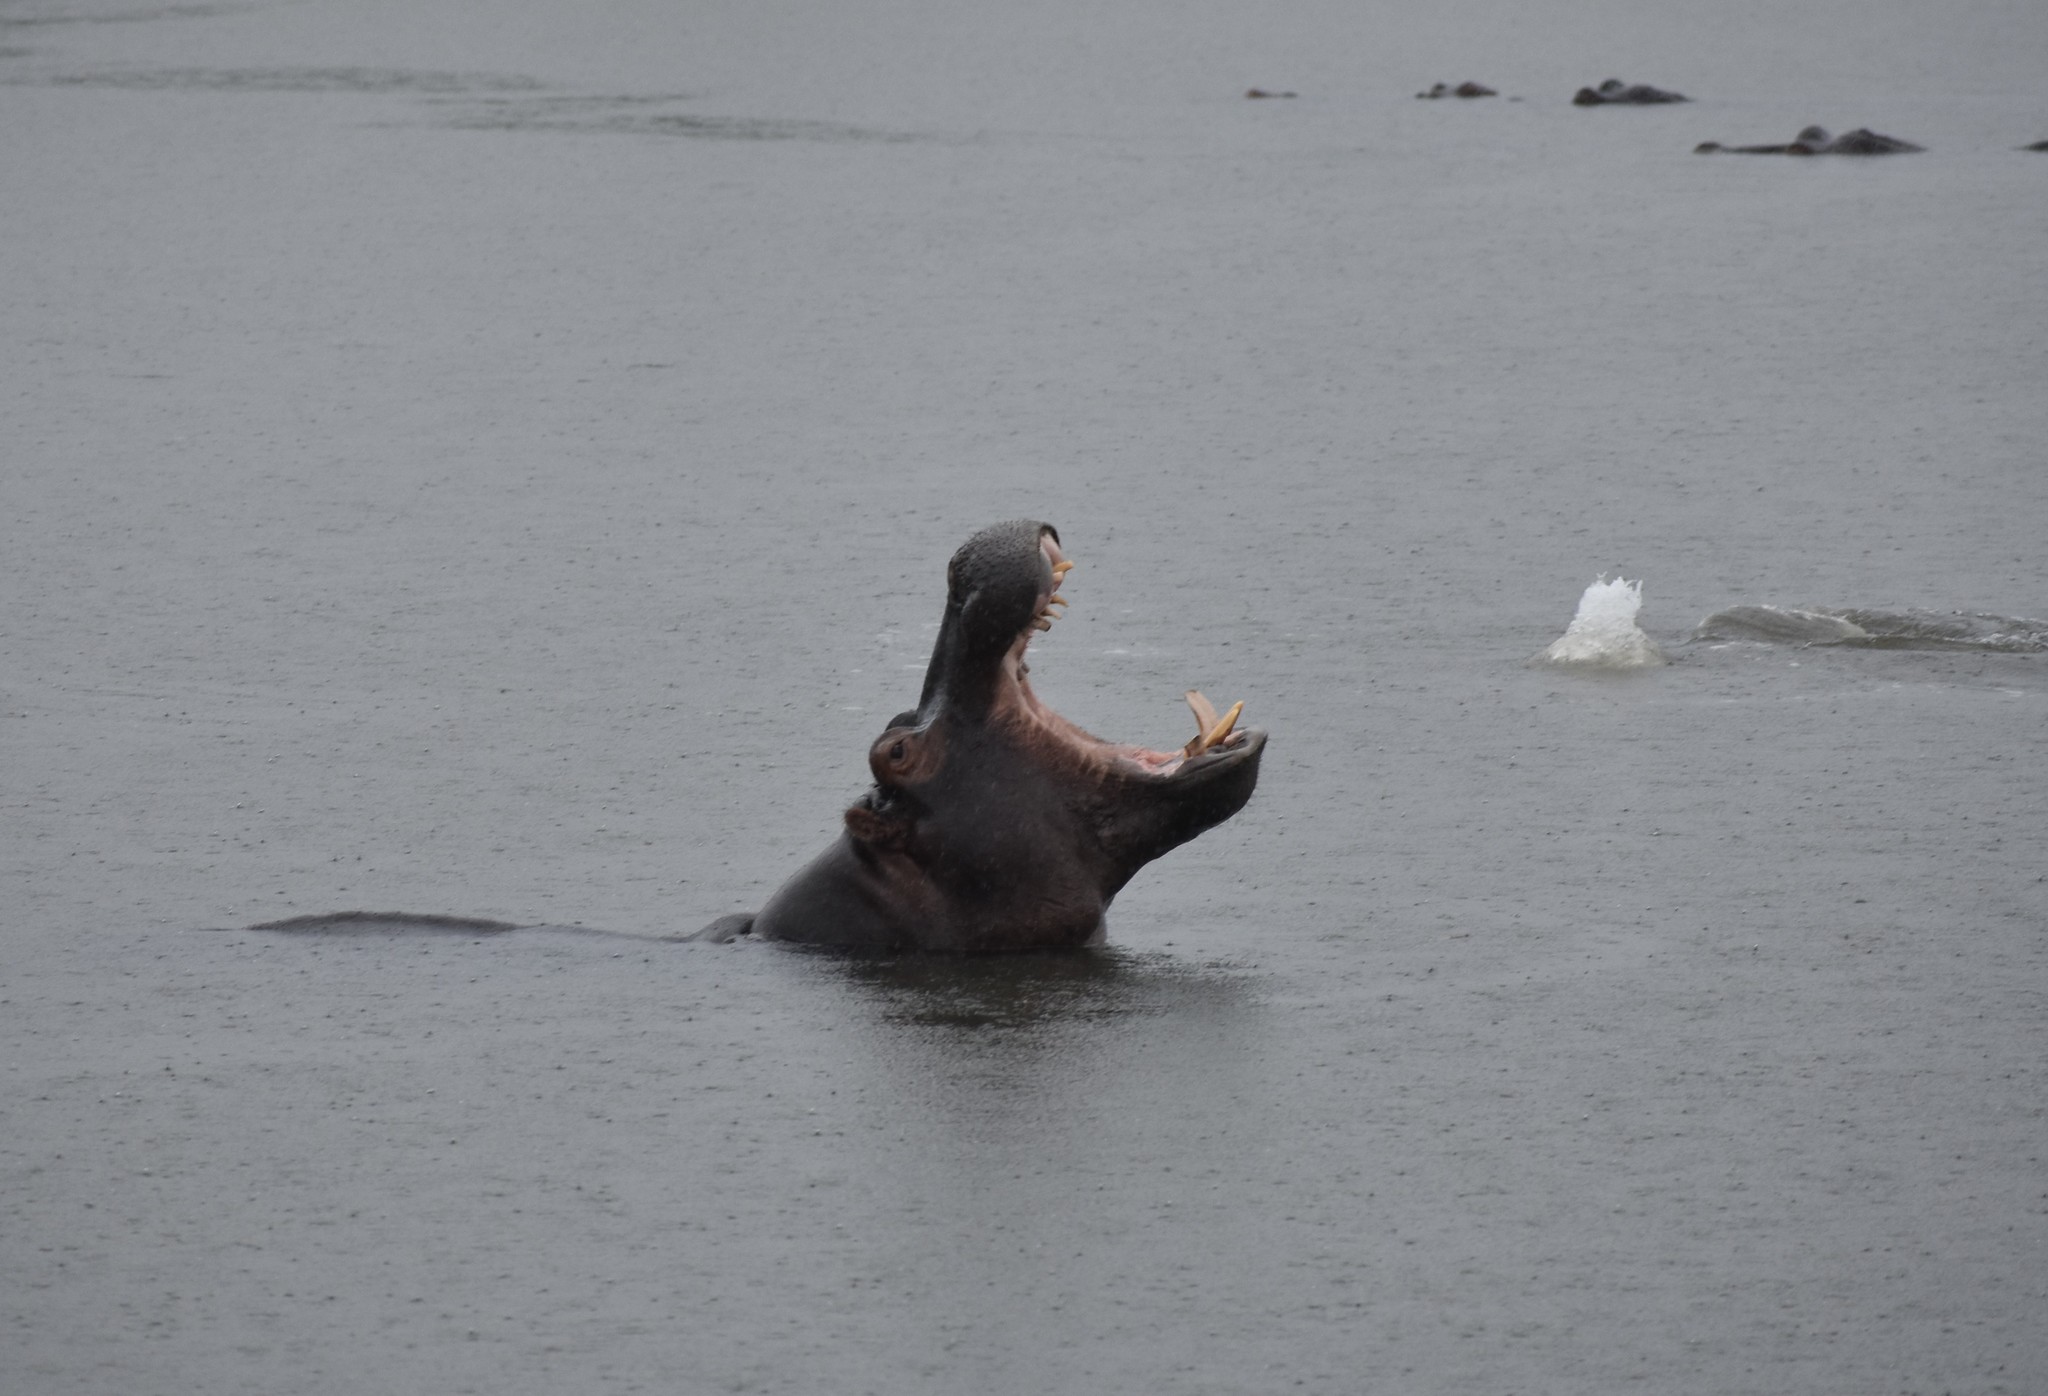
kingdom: Animalia
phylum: Chordata
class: Mammalia
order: Artiodactyla
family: Hippopotamidae
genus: Hippopotamus
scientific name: Hippopotamus amphibius
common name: Common hippopotamus
